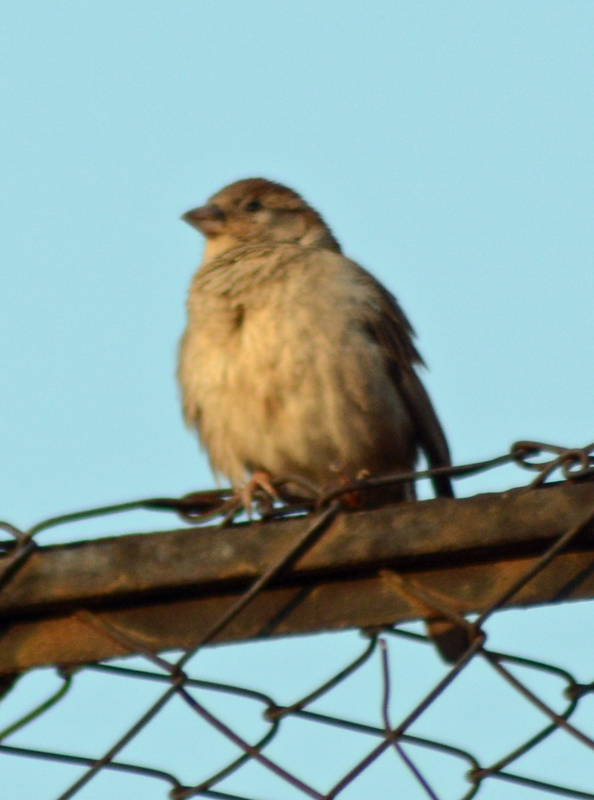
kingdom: Animalia
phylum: Chordata
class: Aves
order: Passeriformes
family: Passeridae
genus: Passer
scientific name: Passer domesticus
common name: House sparrow
